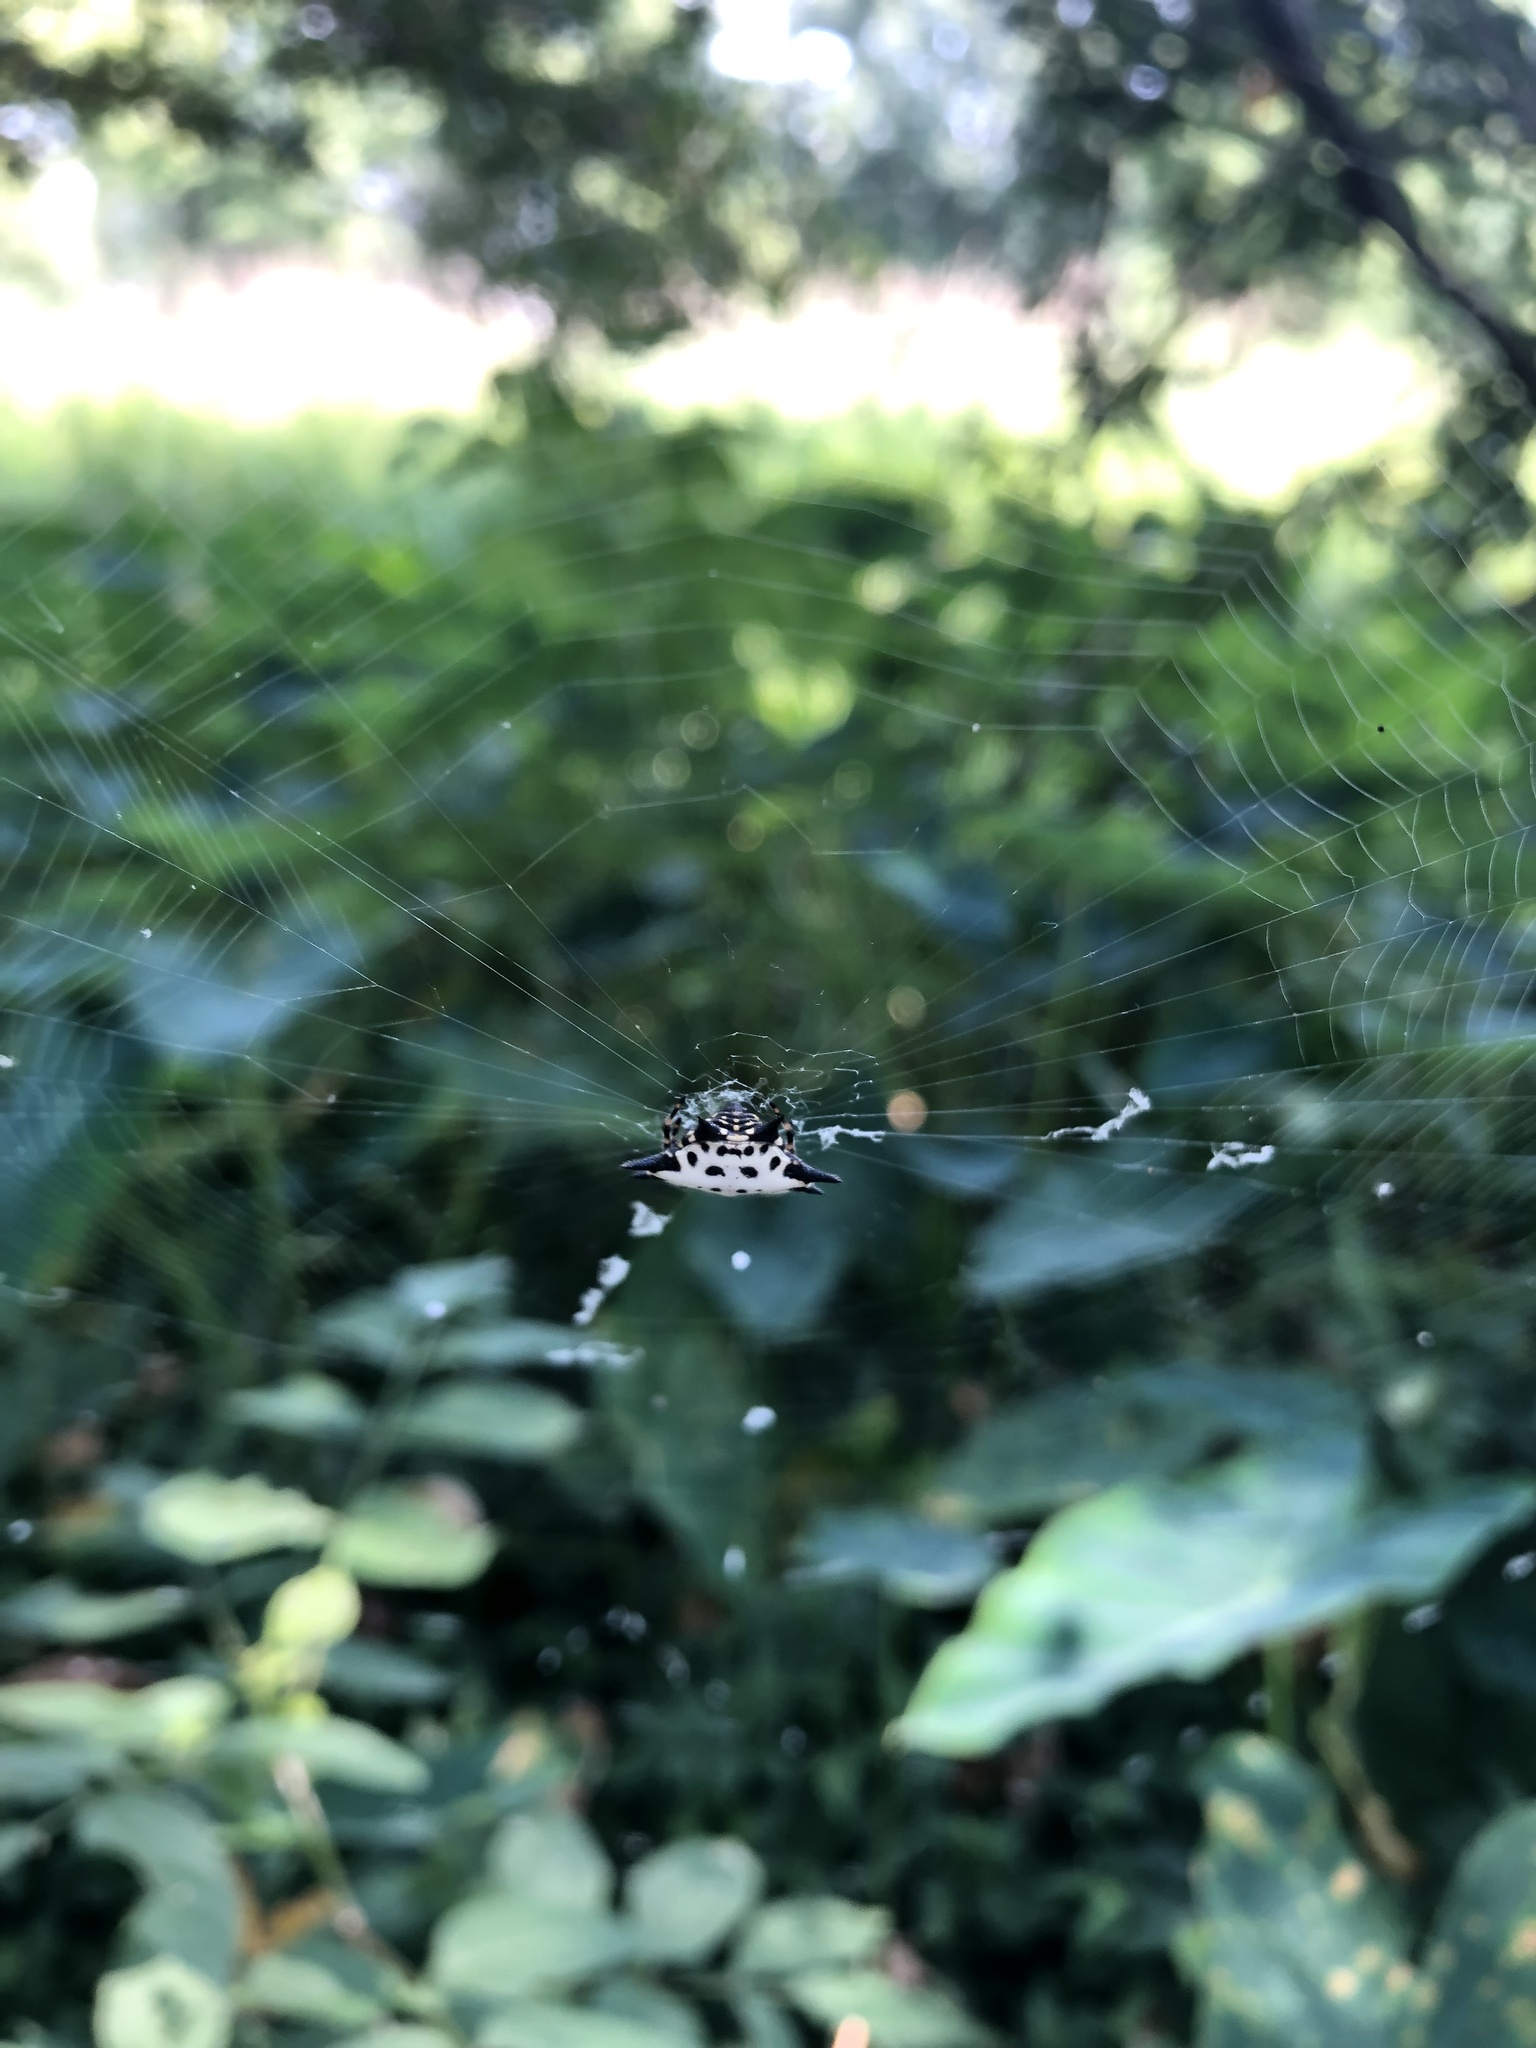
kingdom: Animalia
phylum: Arthropoda
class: Arachnida
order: Araneae
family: Araneidae
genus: Gasteracantha
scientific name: Gasteracantha cancriformis
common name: Orb weavers
